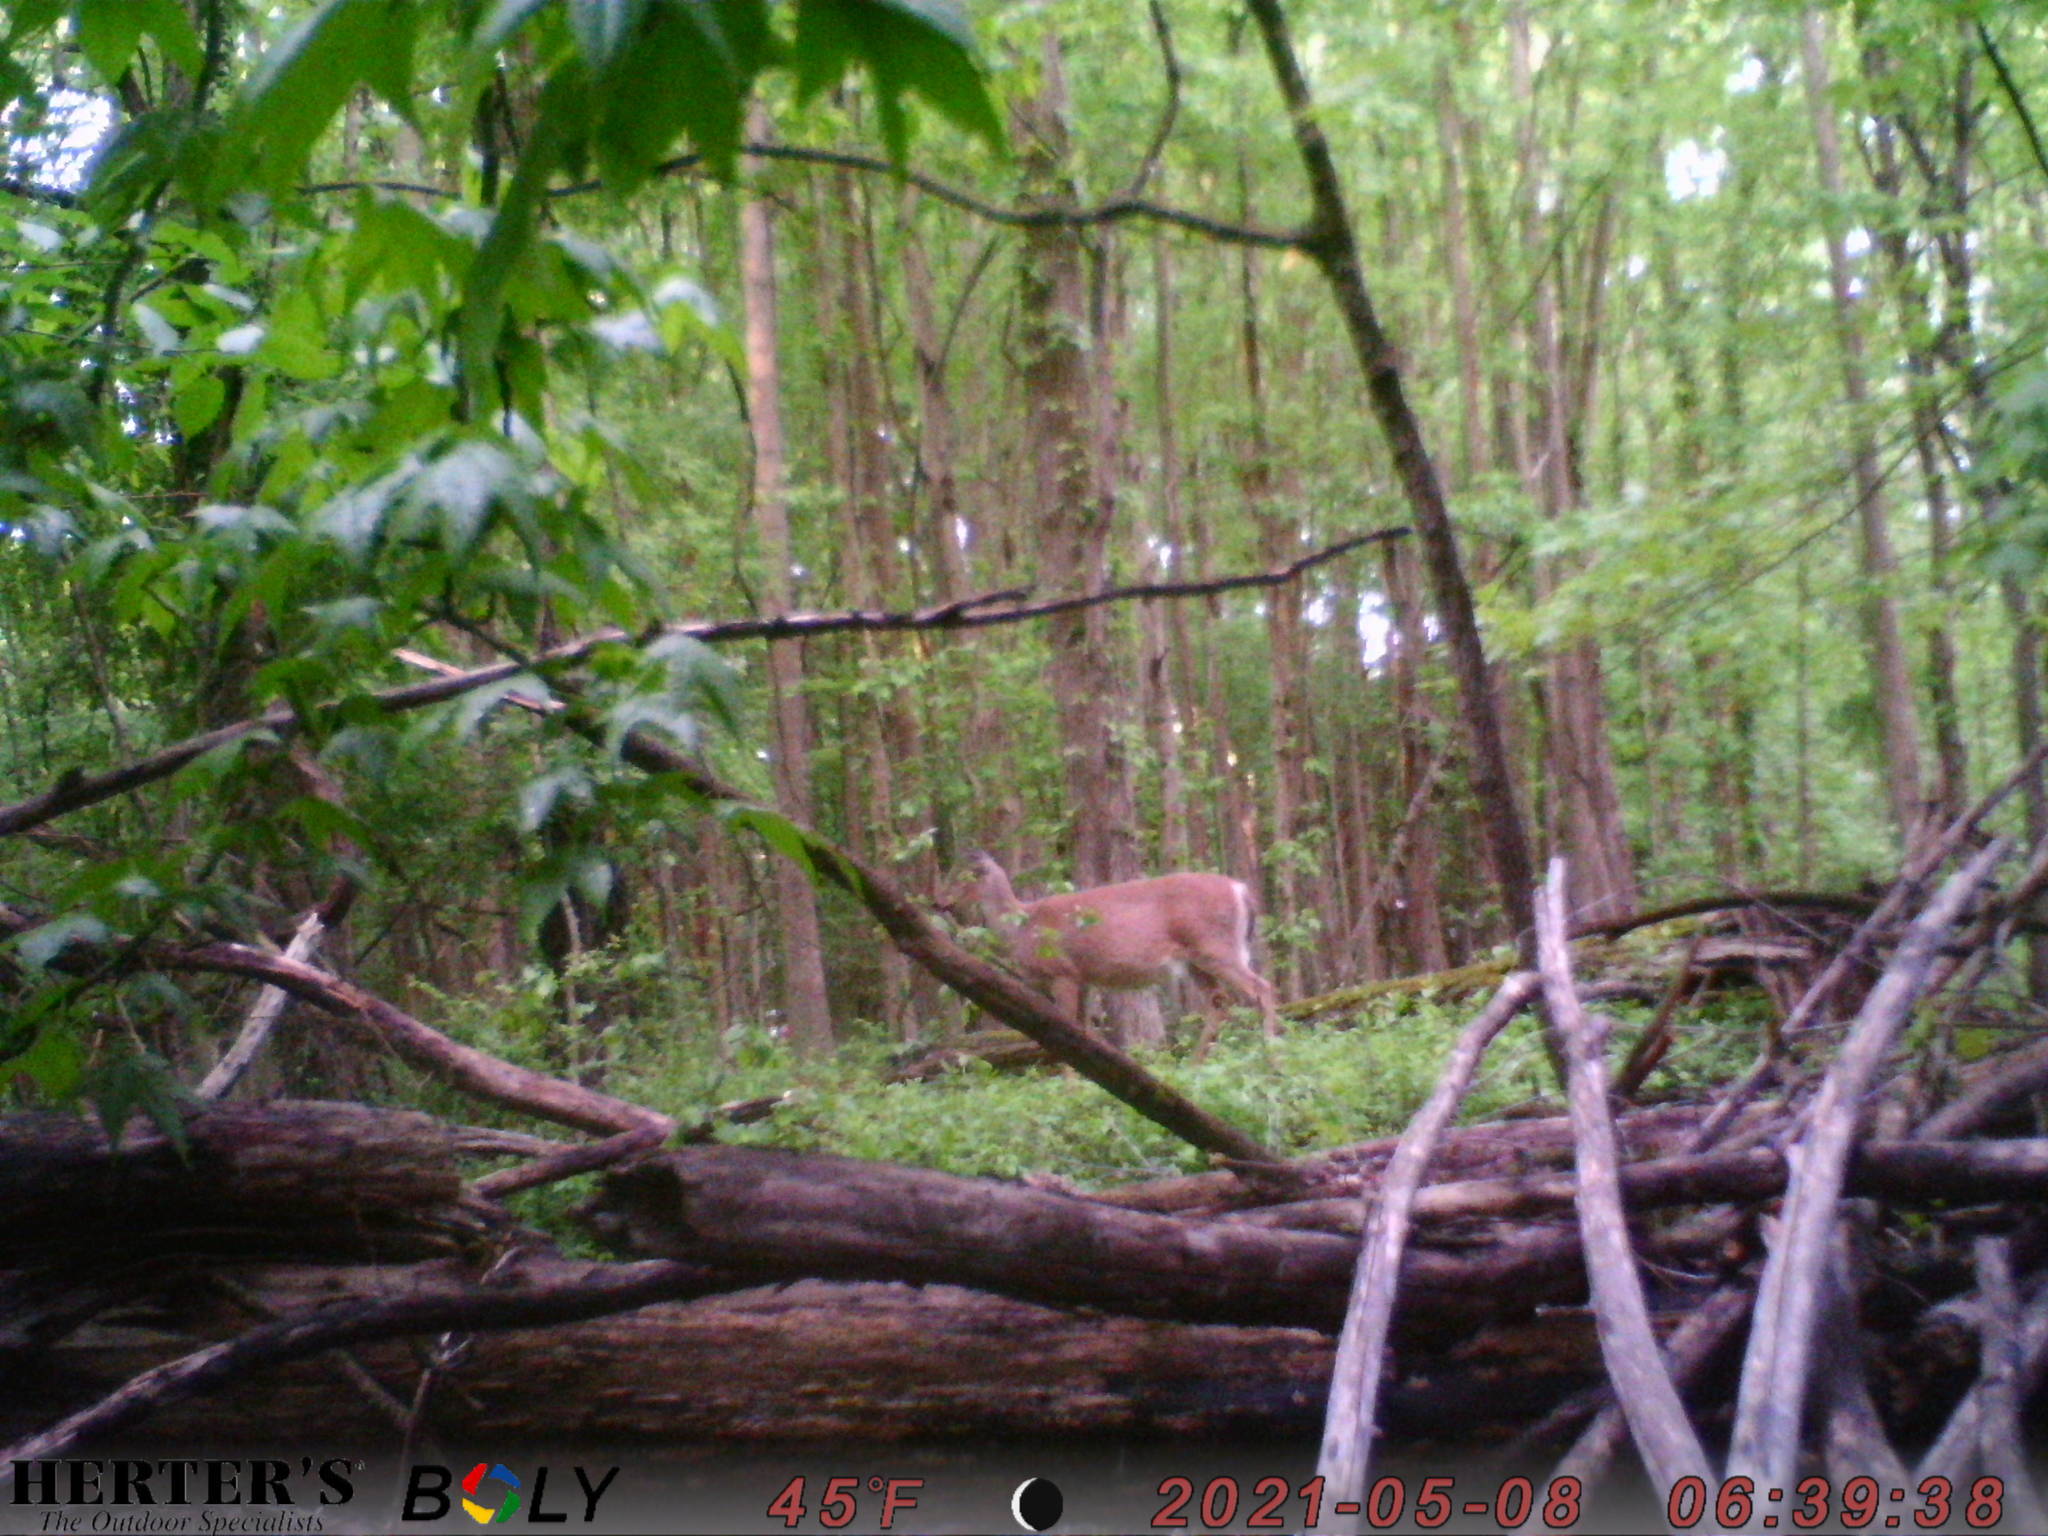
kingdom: Animalia
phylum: Chordata
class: Mammalia
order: Artiodactyla
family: Cervidae
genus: Odocoileus
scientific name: Odocoileus virginianus
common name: White-tailed deer
